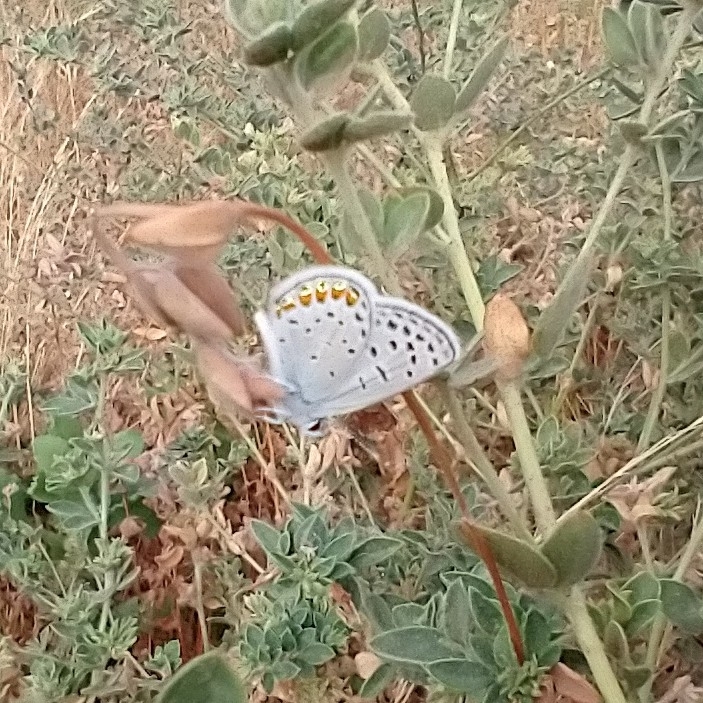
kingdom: Animalia
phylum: Arthropoda
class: Insecta
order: Lepidoptera
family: Lycaenidae
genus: Icaricia
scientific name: Icaricia acmon
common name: Acmon blue
